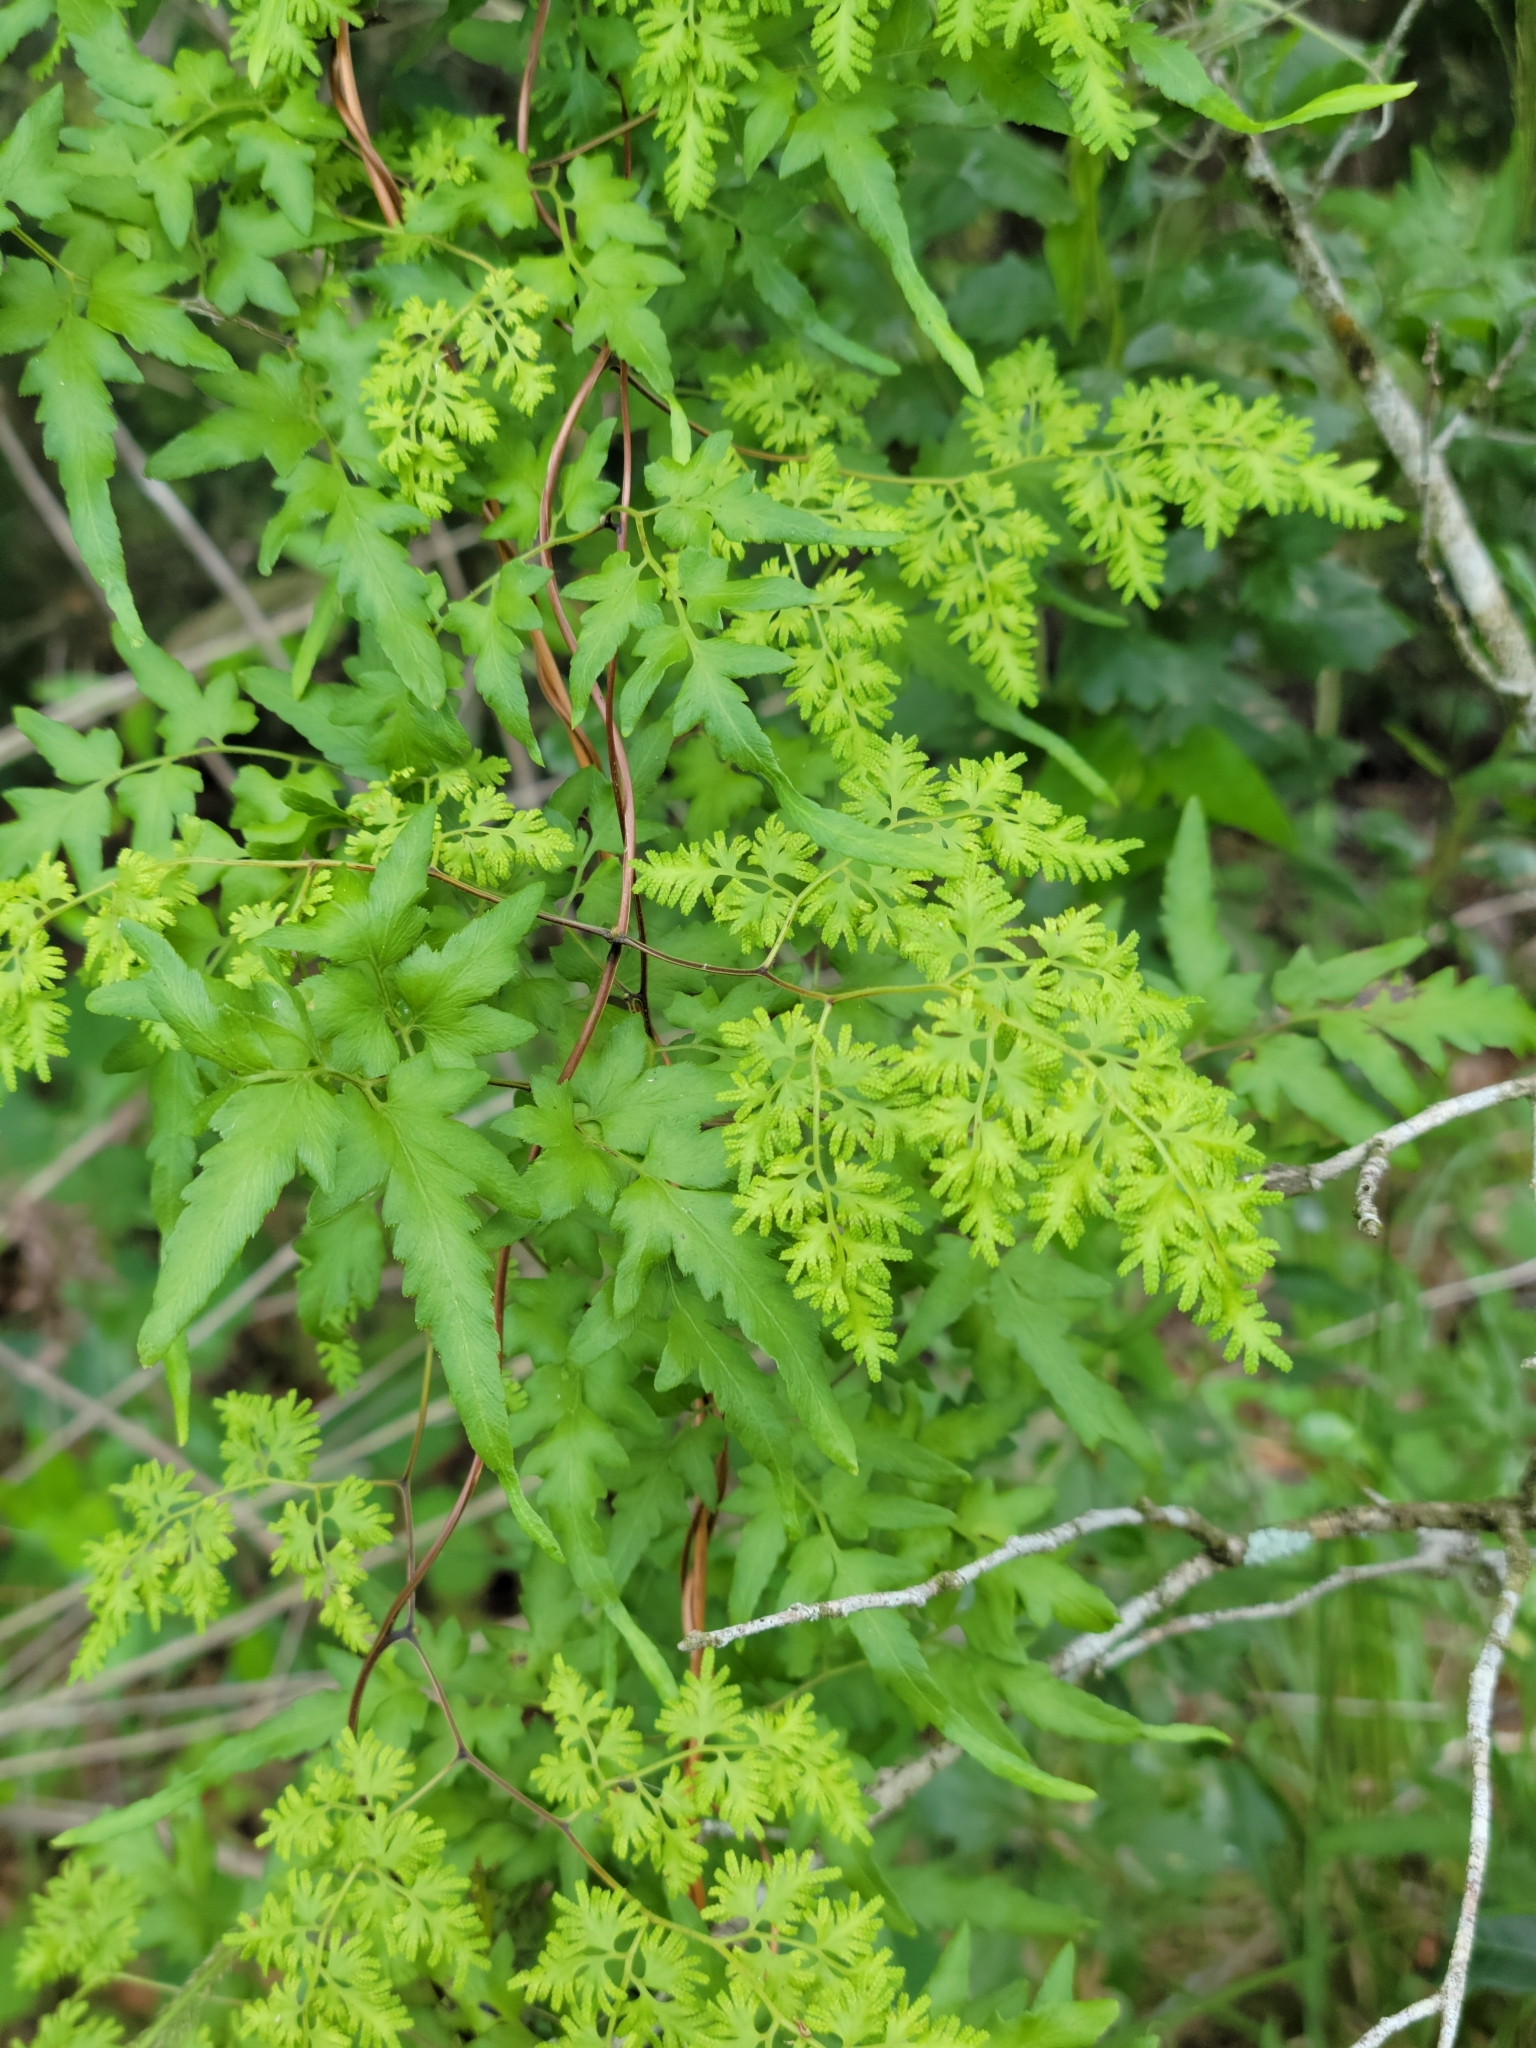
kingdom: Plantae
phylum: Tracheophyta
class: Polypodiopsida
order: Schizaeales
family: Lygodiaceae
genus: Lygodium
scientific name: Lygodium japonicum
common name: Japanese climbing fern
